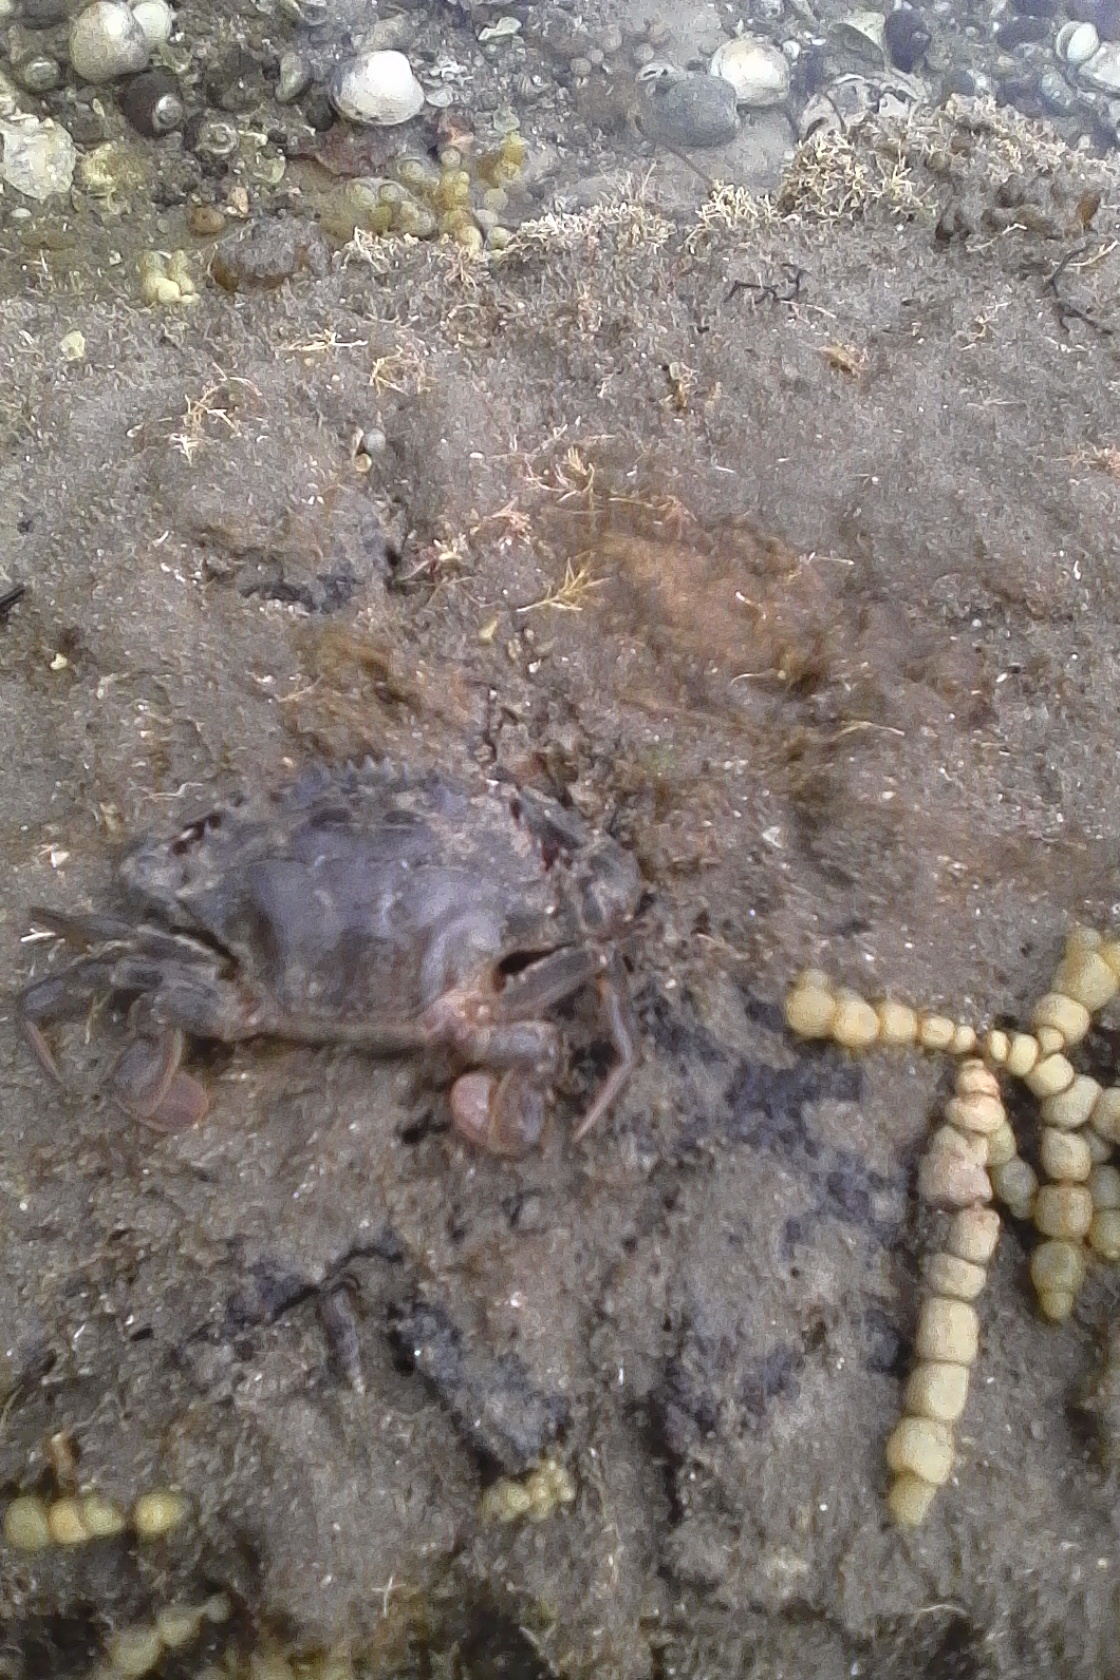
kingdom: Animalia
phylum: Arthropoda
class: Malacostraca
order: Decapoda
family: Portunidae
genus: Charybdis
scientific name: Charybdis japonica
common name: Asian paddle crab
